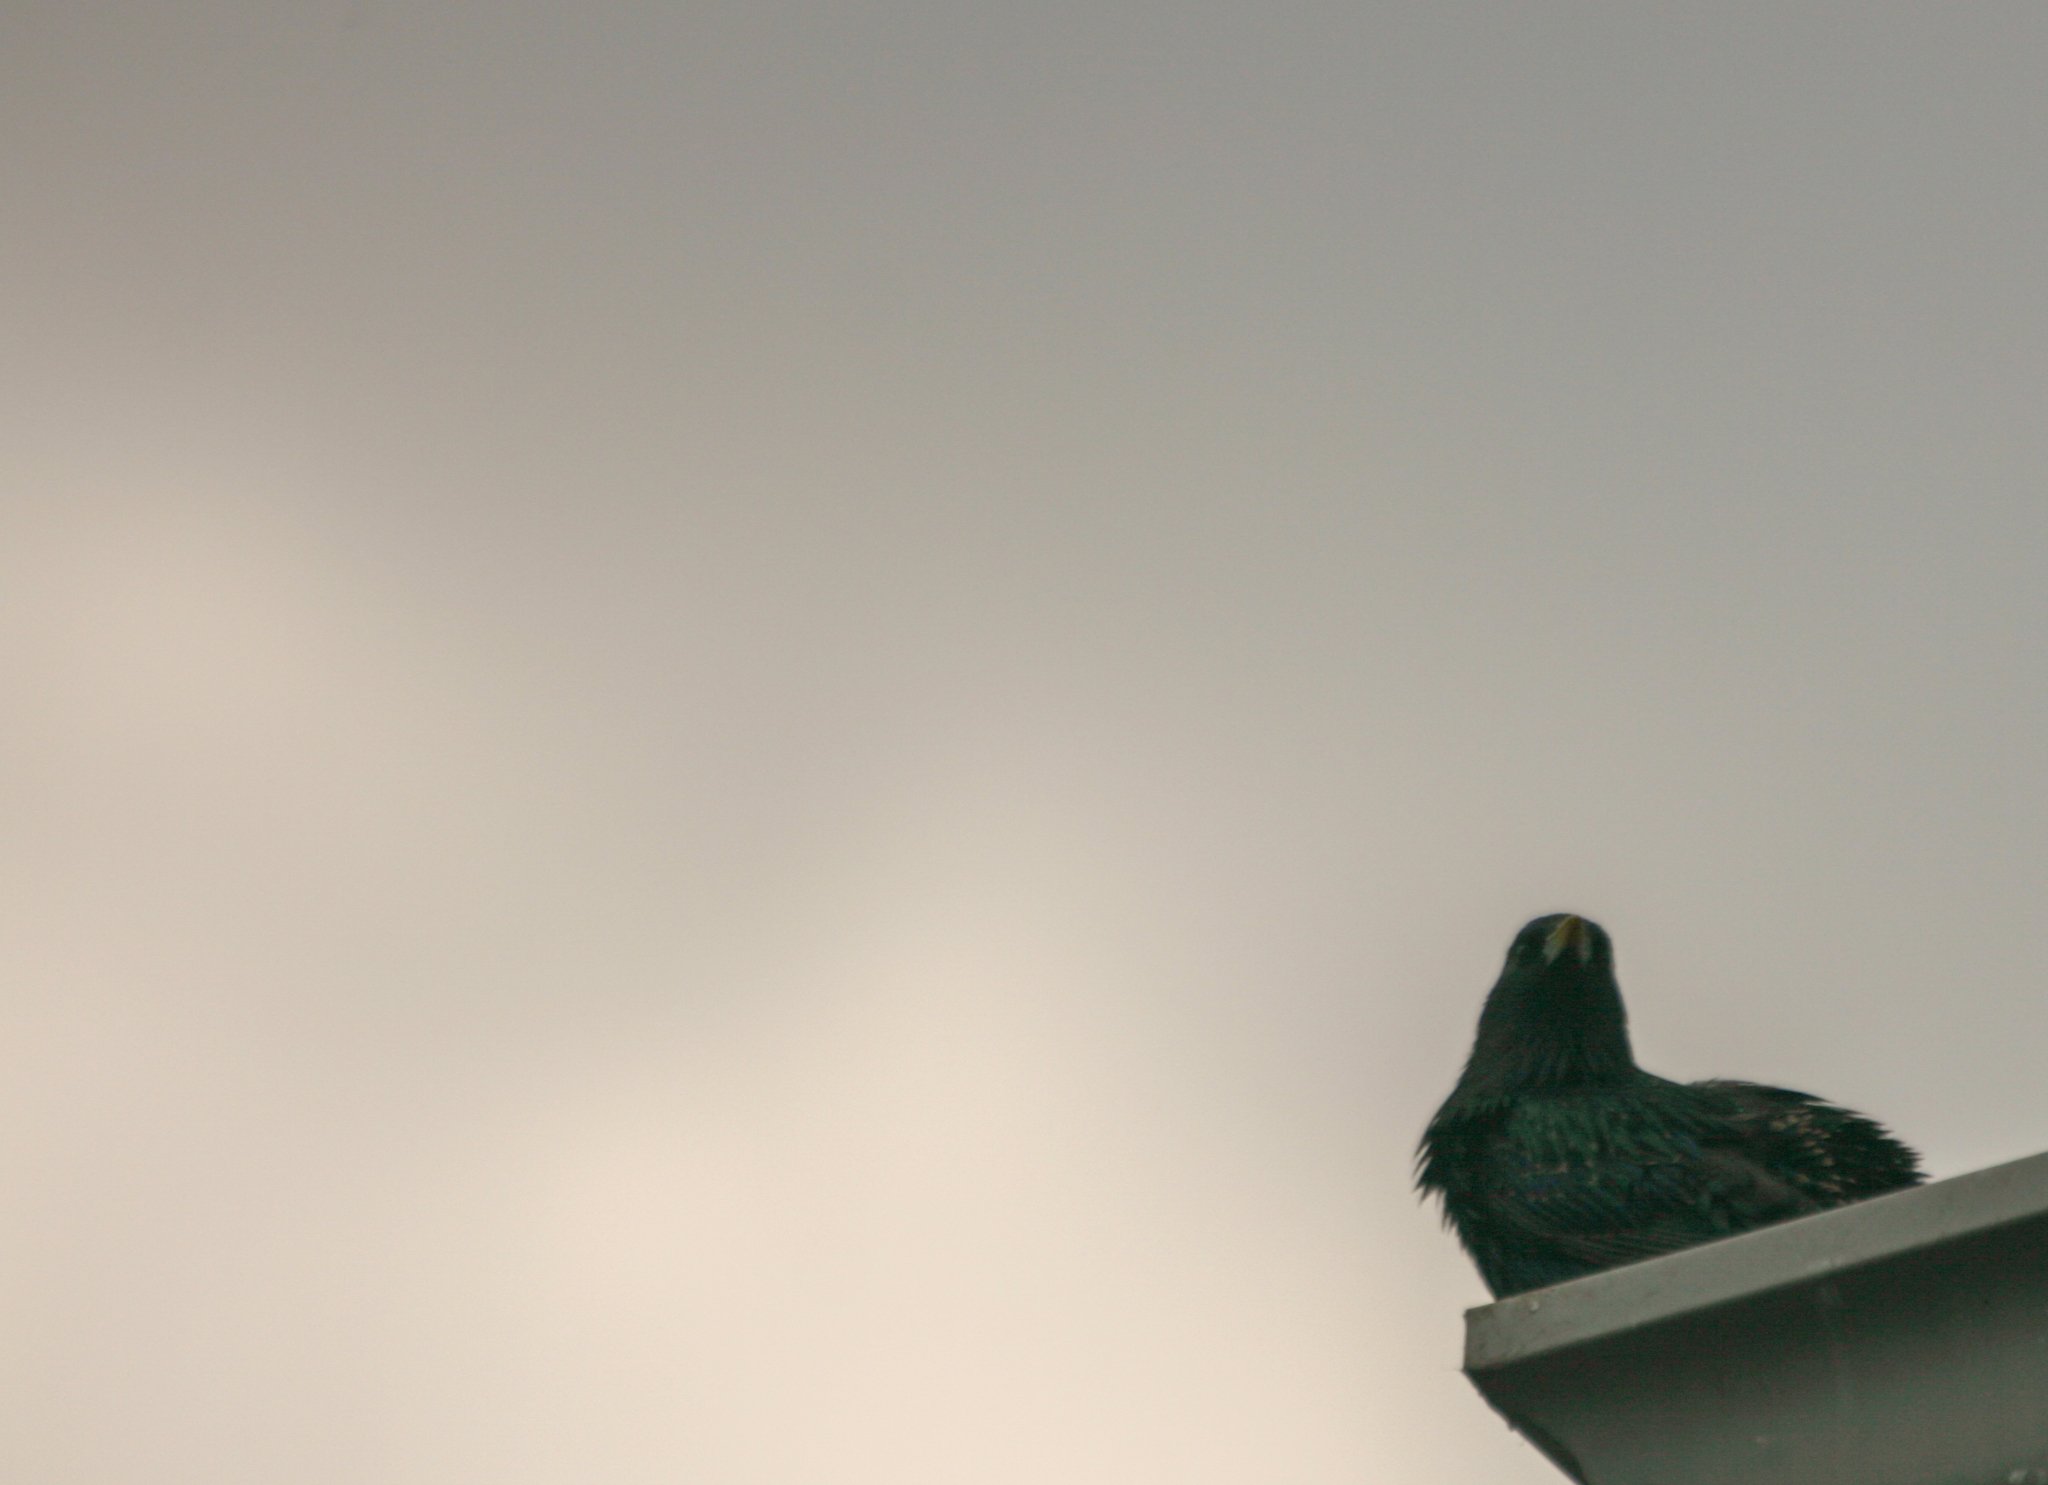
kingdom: Animalia
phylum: Chordata
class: Aves
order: Passeriformes
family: Sturnidae
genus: Sturnus
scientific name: Sturnus vulgaris
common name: Common starling
